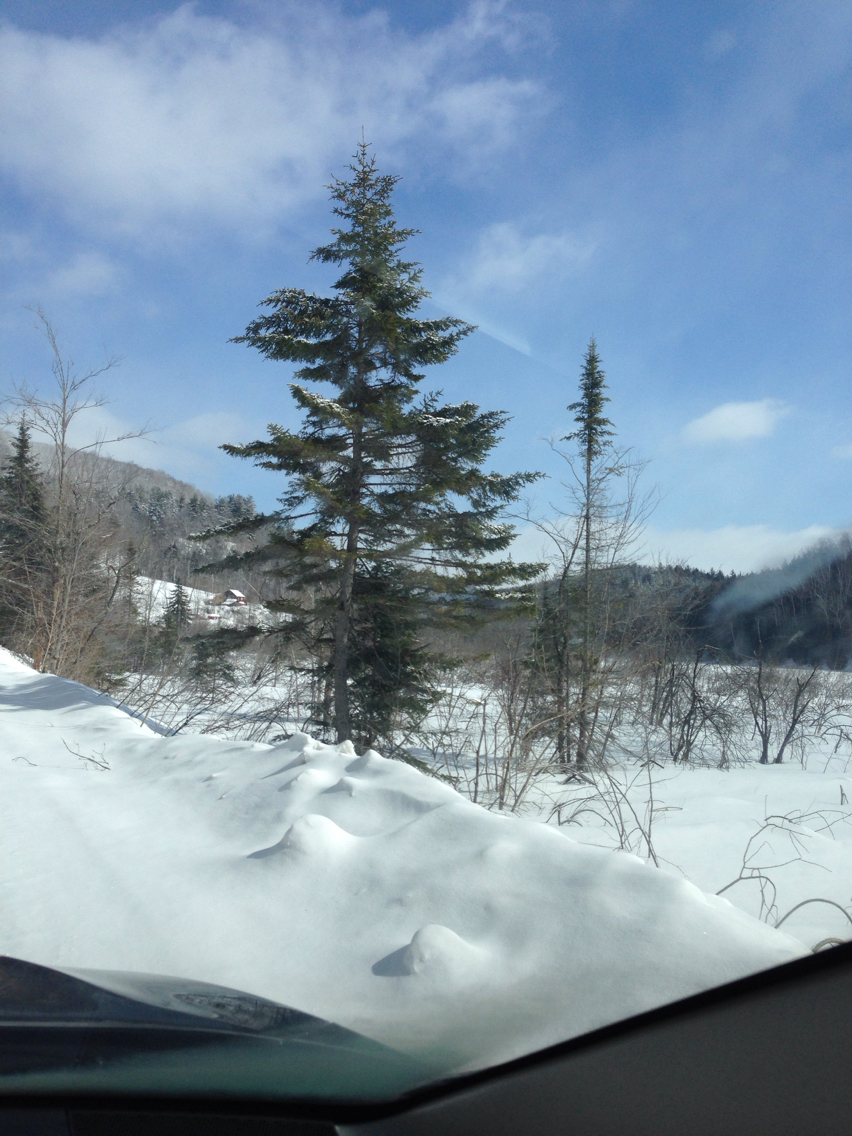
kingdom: Plantae
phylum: Tracheophyta
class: Pinopsida
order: Pinales
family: Pinaceae
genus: Picea
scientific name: Picea rubens
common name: Red spruce
